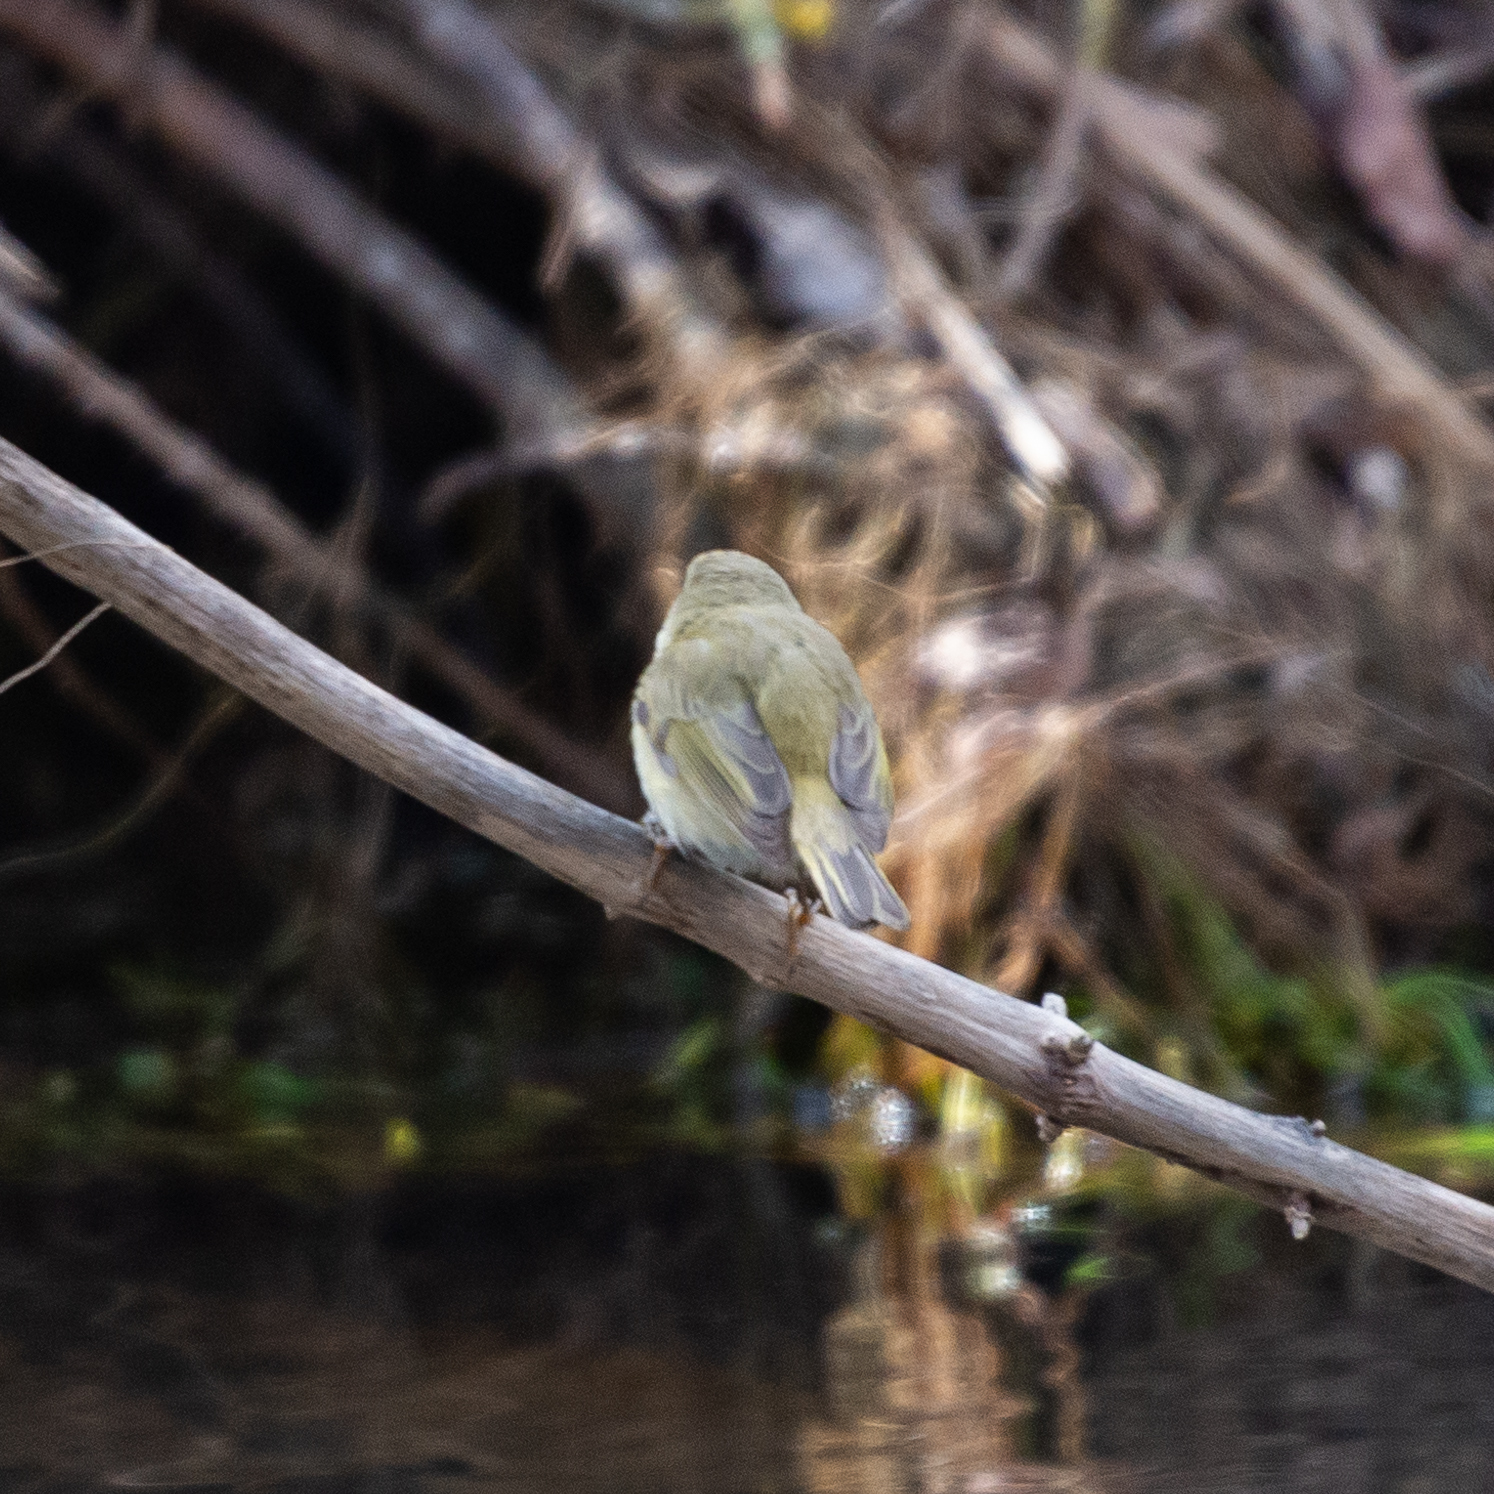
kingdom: Animalia
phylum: Chordata
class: Aves
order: Passeriformes
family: Phylloscopidae
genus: Phylloscopus
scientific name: Phylloscopus collybita
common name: Common chiffchaff
